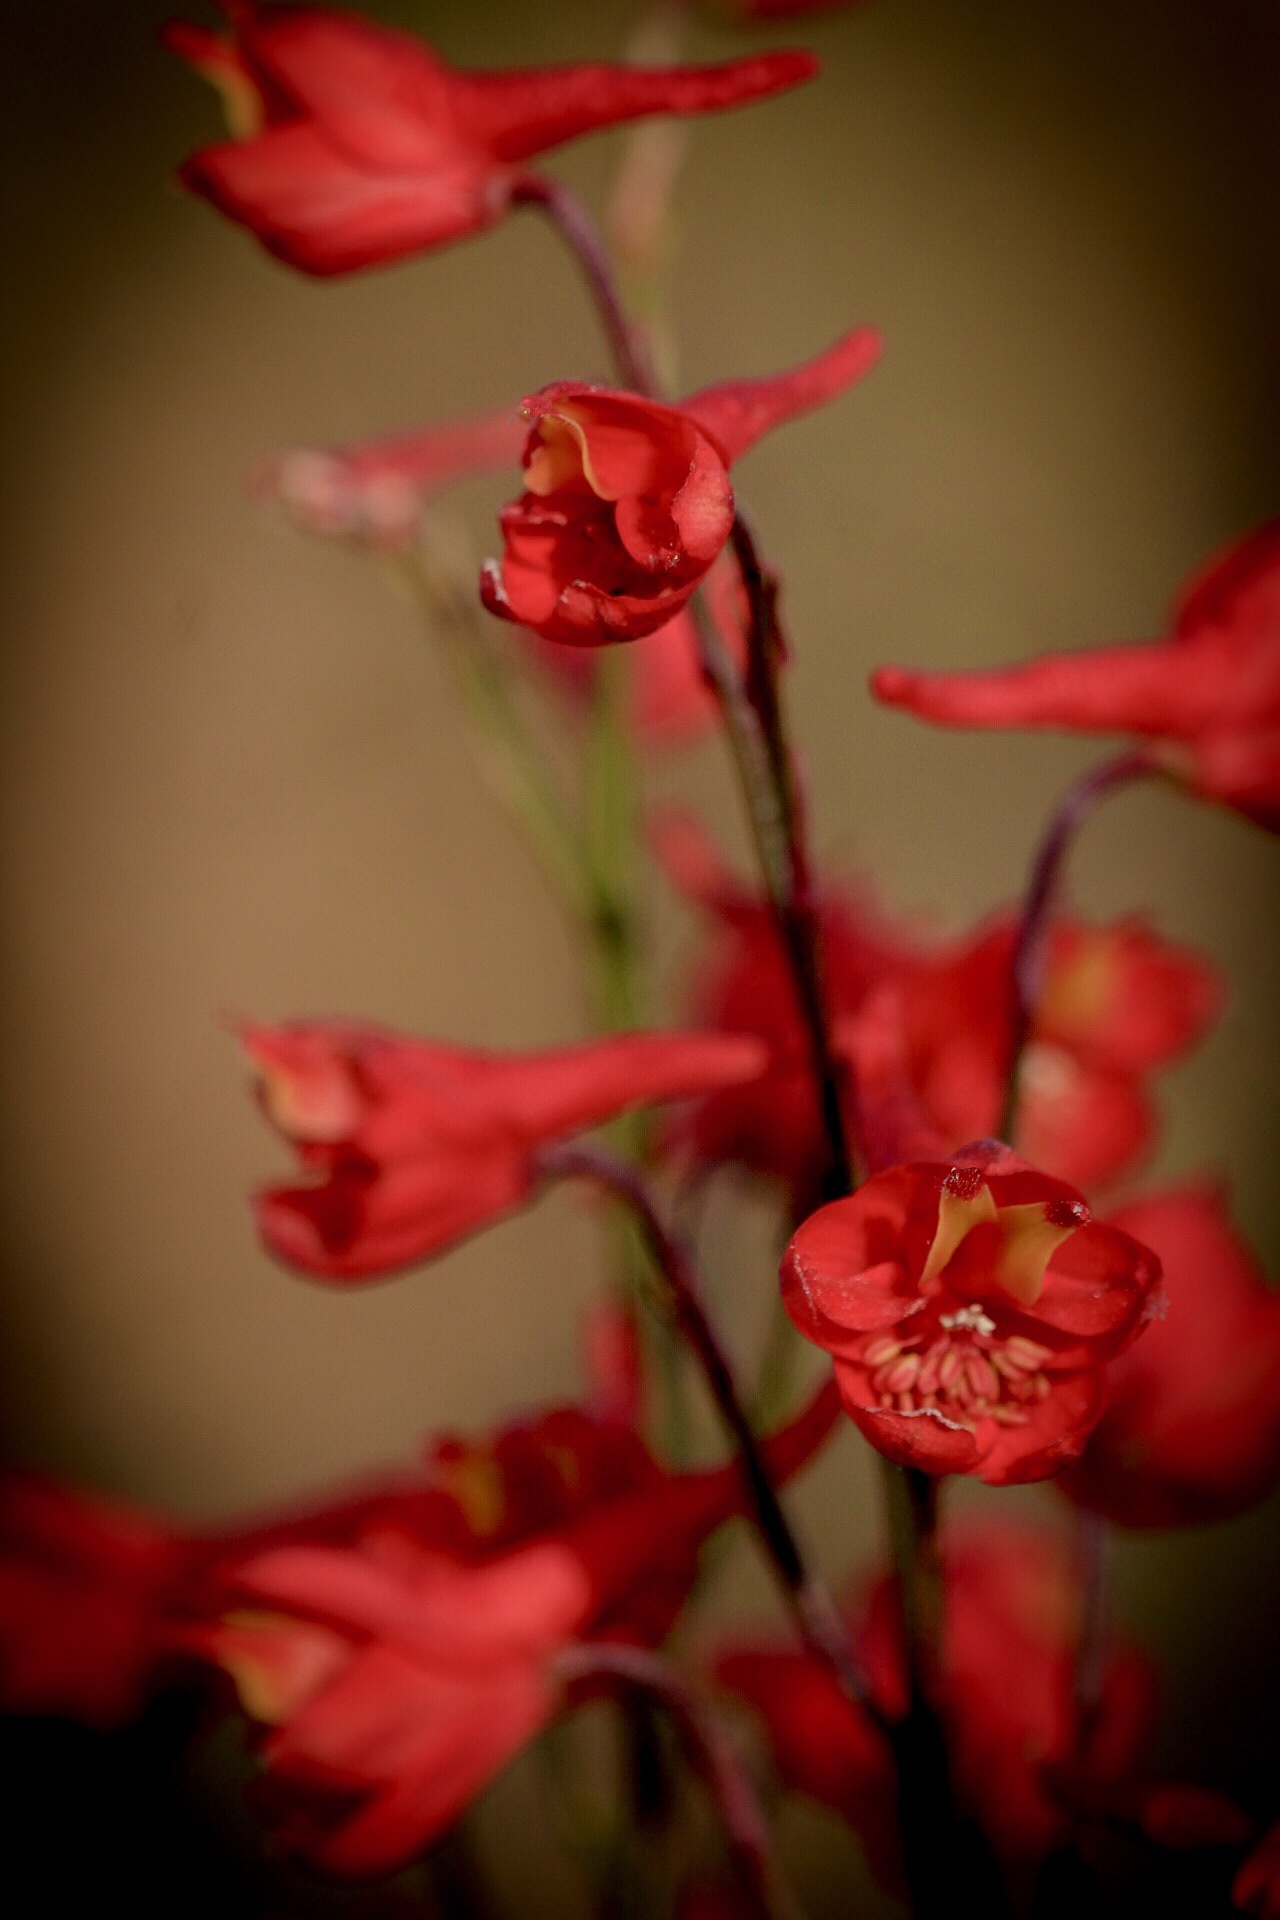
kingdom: Plantae
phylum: Tracheophyta
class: Magnoliopsida
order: Ranunculales
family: Ranunculaceae
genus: Delphinium
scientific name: Delphinium cardinale
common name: Scarlet larkspur
